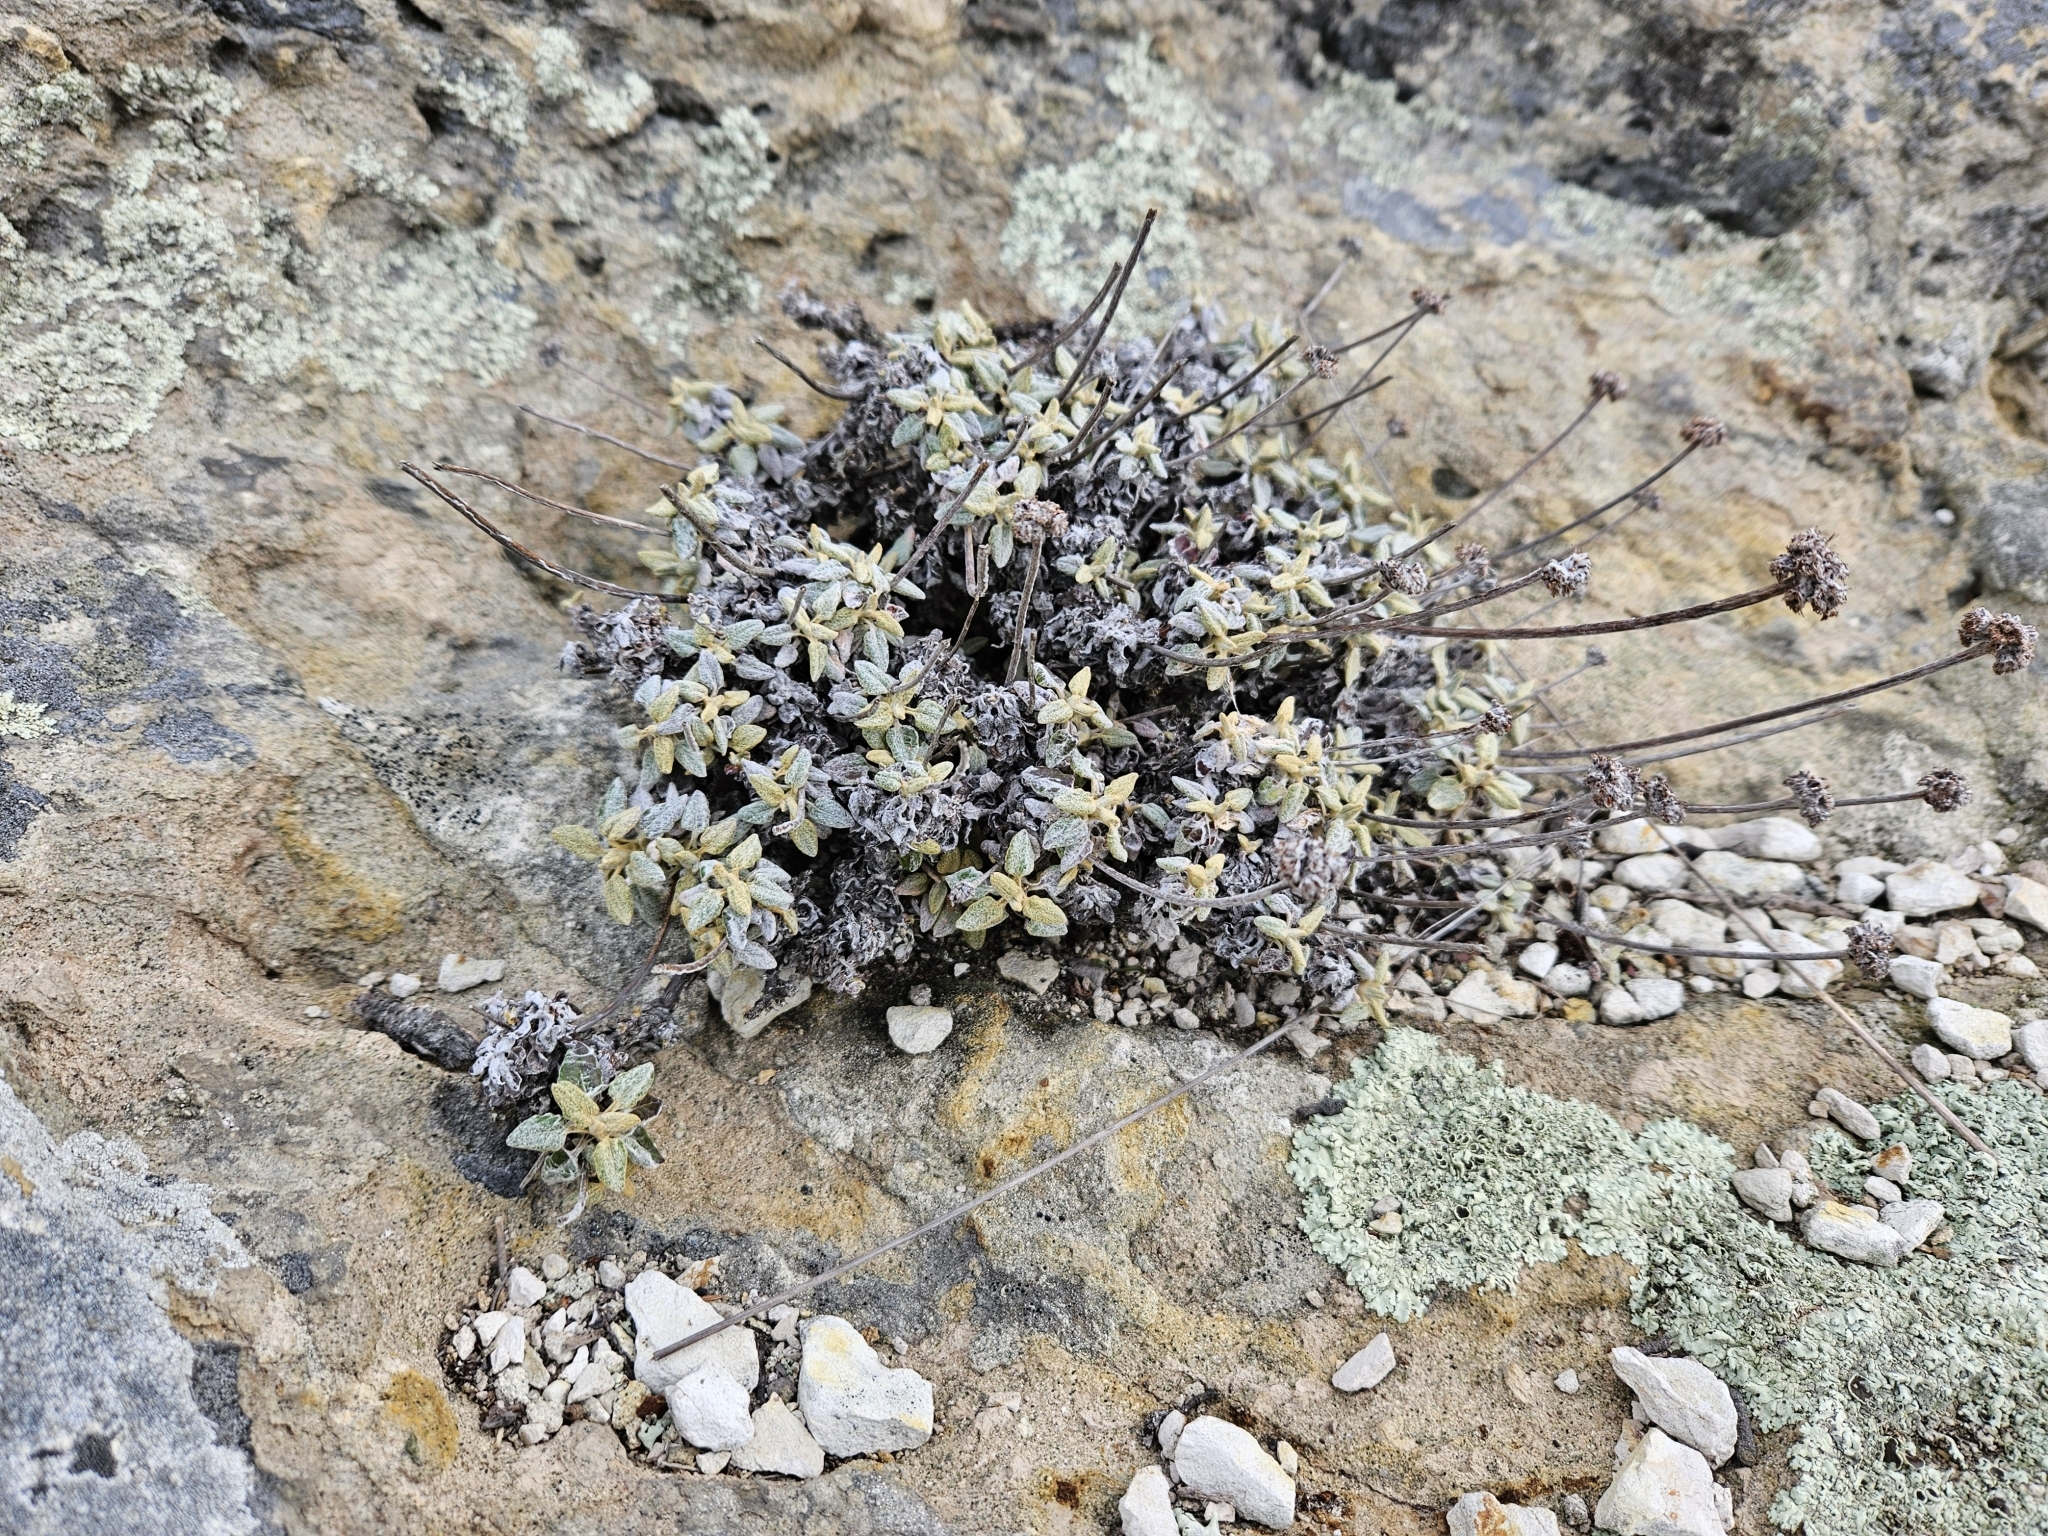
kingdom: Plantae
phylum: Tracheophyta
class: Magnoliopsida
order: Caryophyllales
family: Polygonaceae
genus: Eriogonum
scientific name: Eriogonum latifolium
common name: Seaside wild buckwheat
